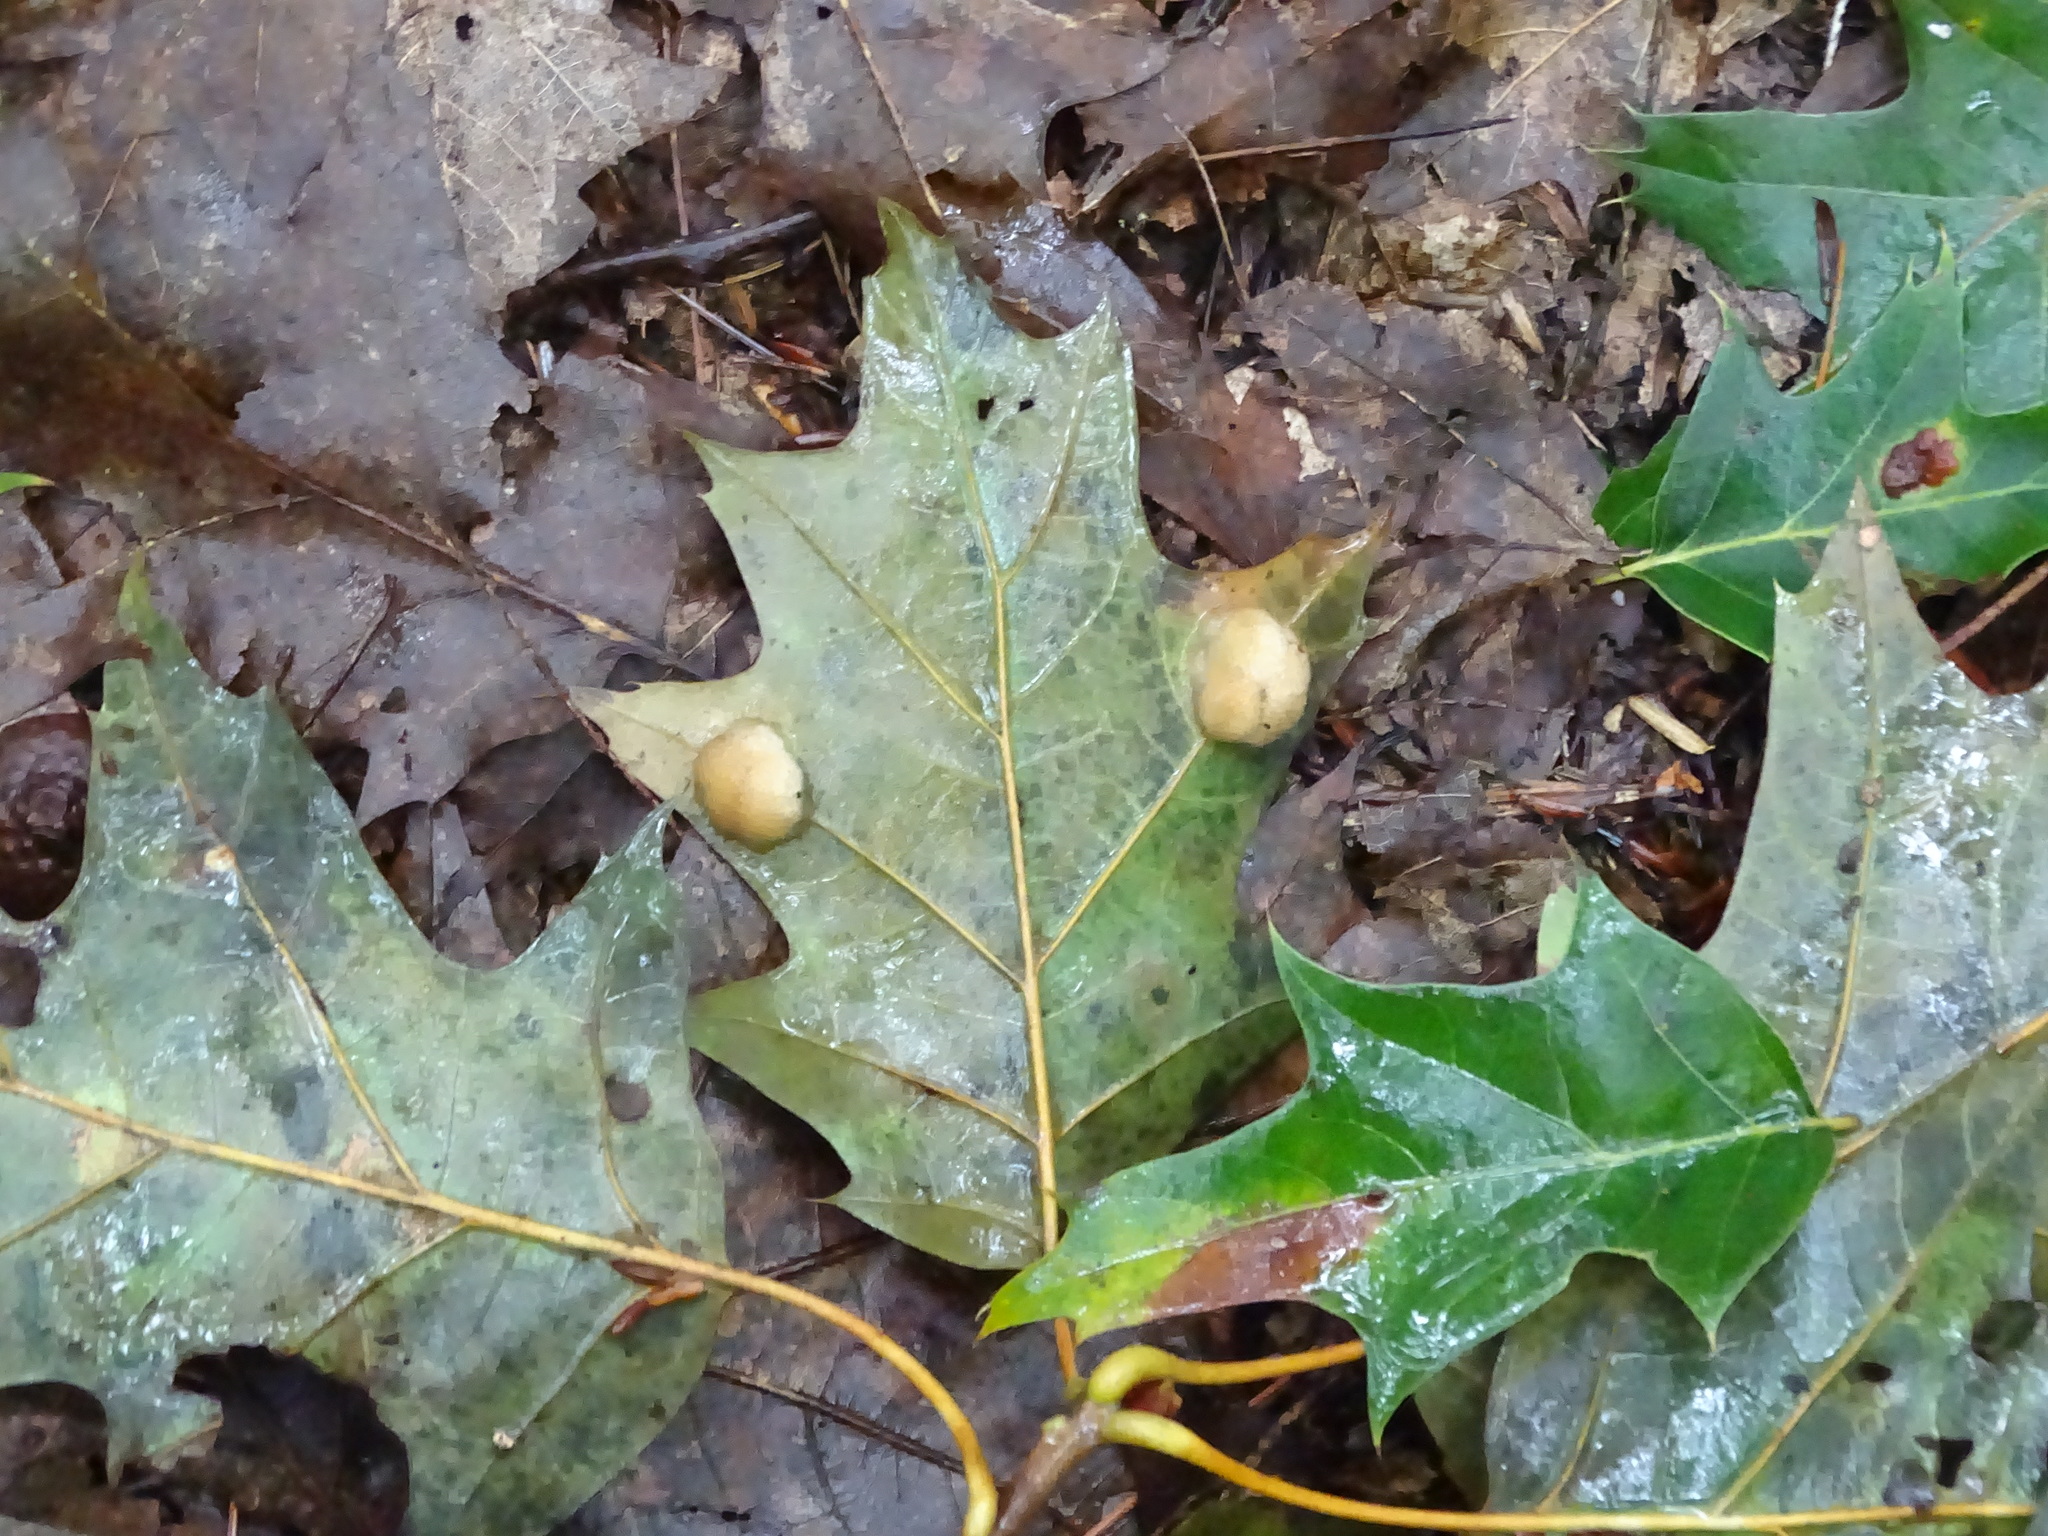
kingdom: Animalia
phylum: Arthropoda
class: Insecta
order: Hymenoptera
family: Cynipidae
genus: Callirhytis
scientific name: Callirhytis
